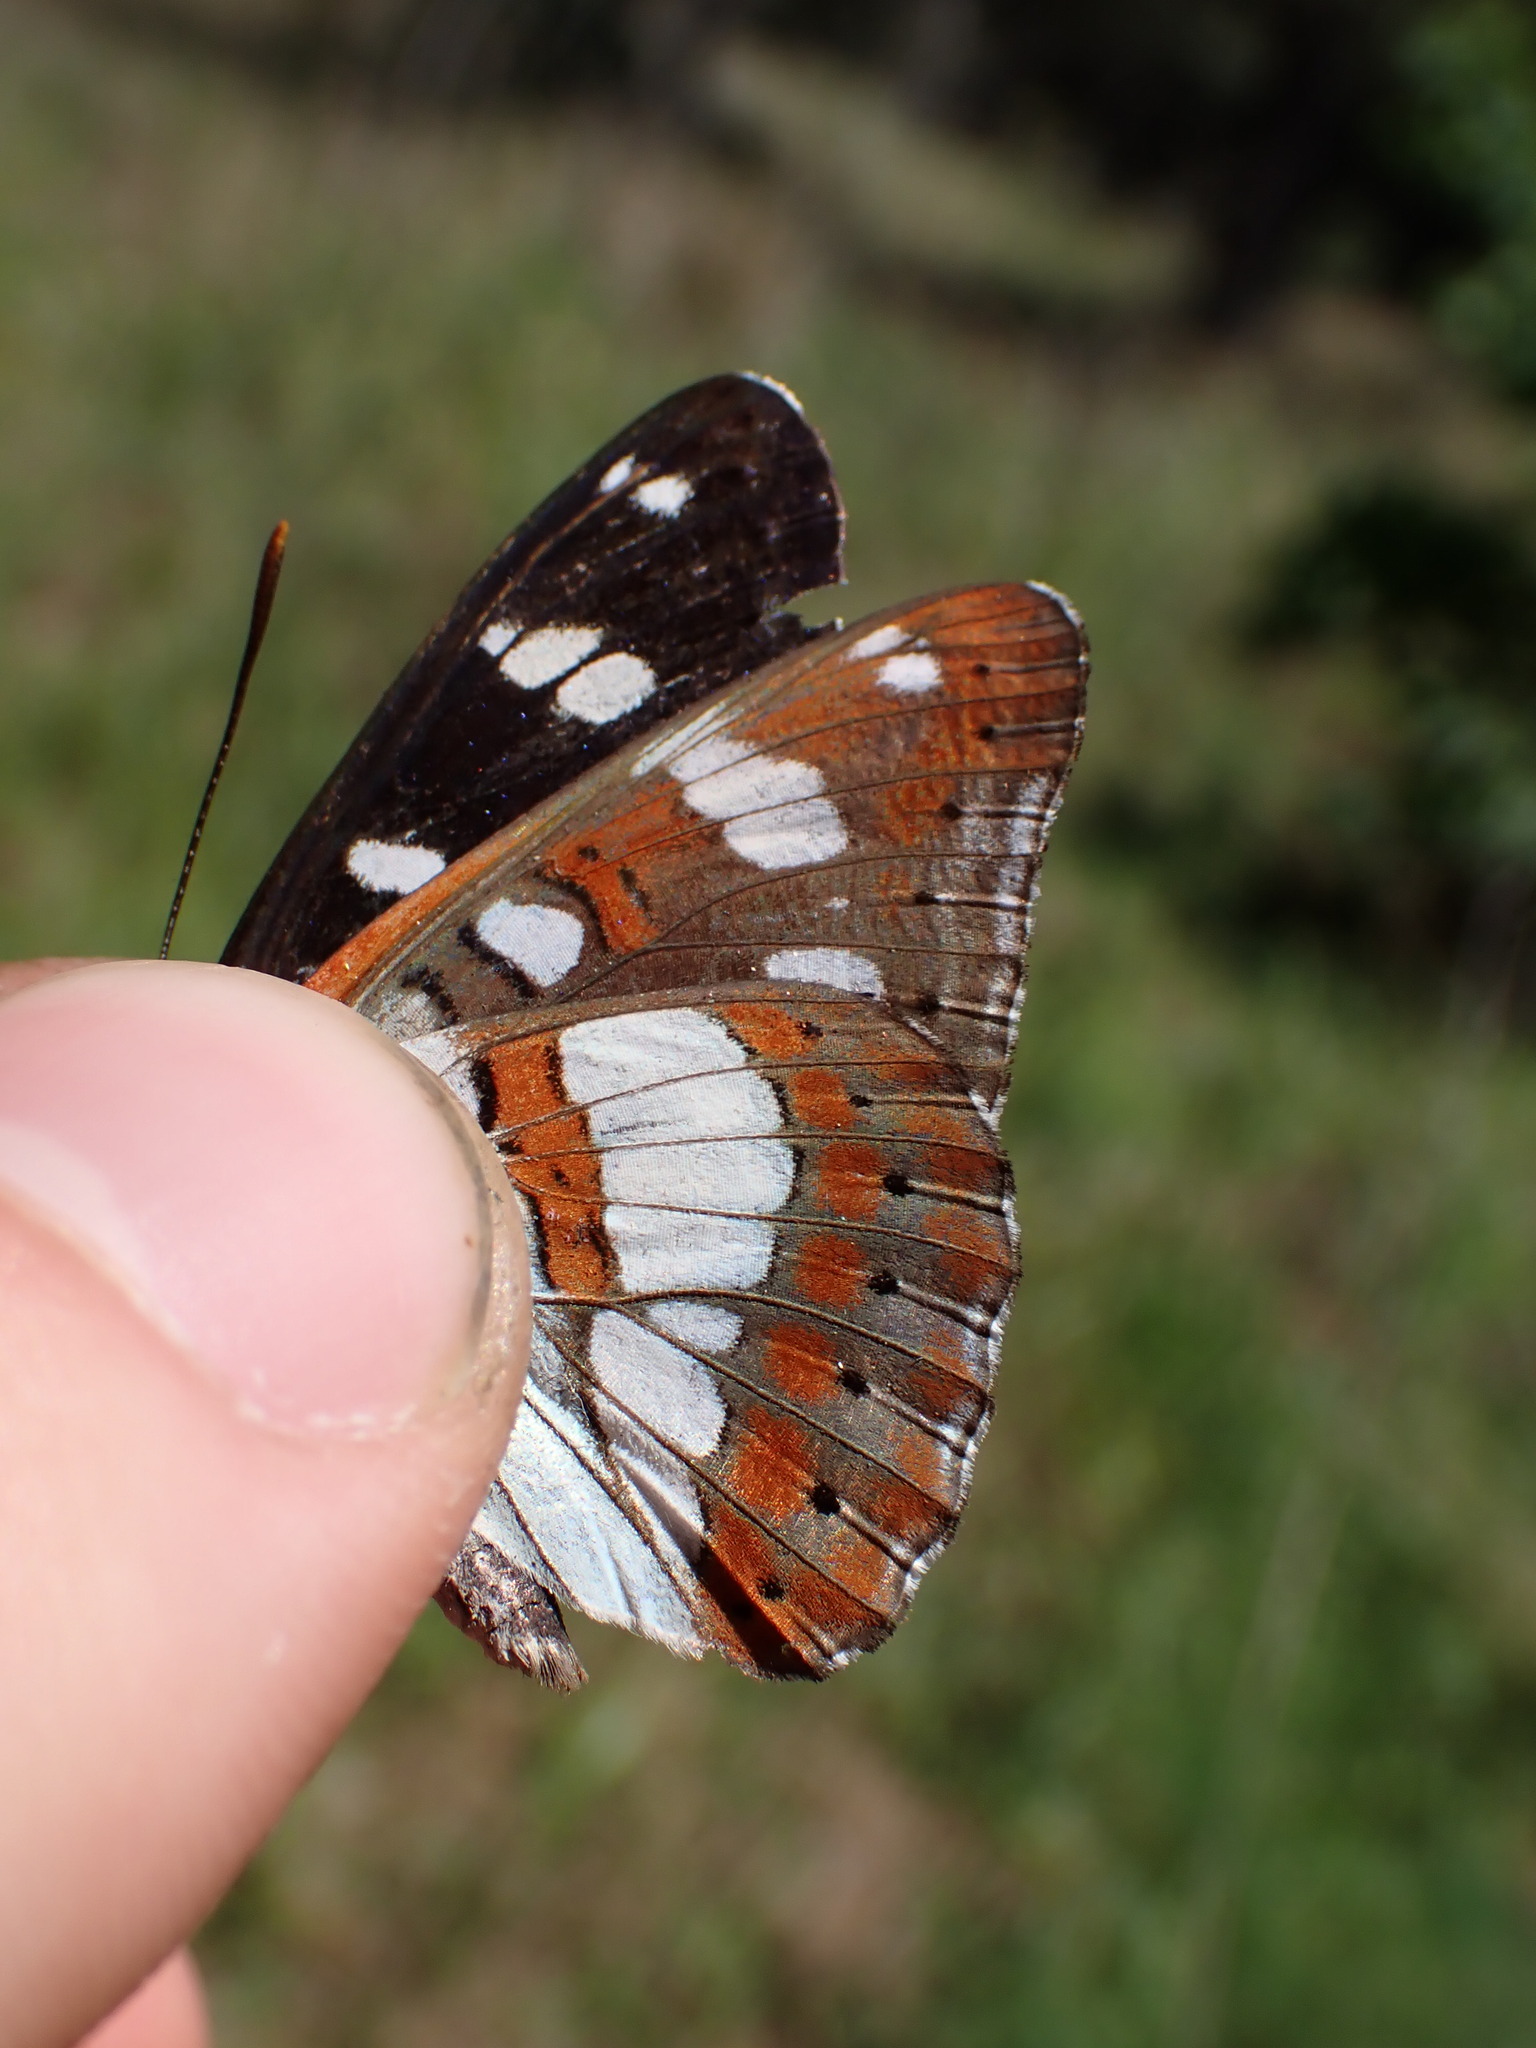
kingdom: Animalia
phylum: Arthropoda
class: Insecta
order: Lepidoptera
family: Nymphalidae
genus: Limenitis
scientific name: Limenitis reducta
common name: Southern white admiral
